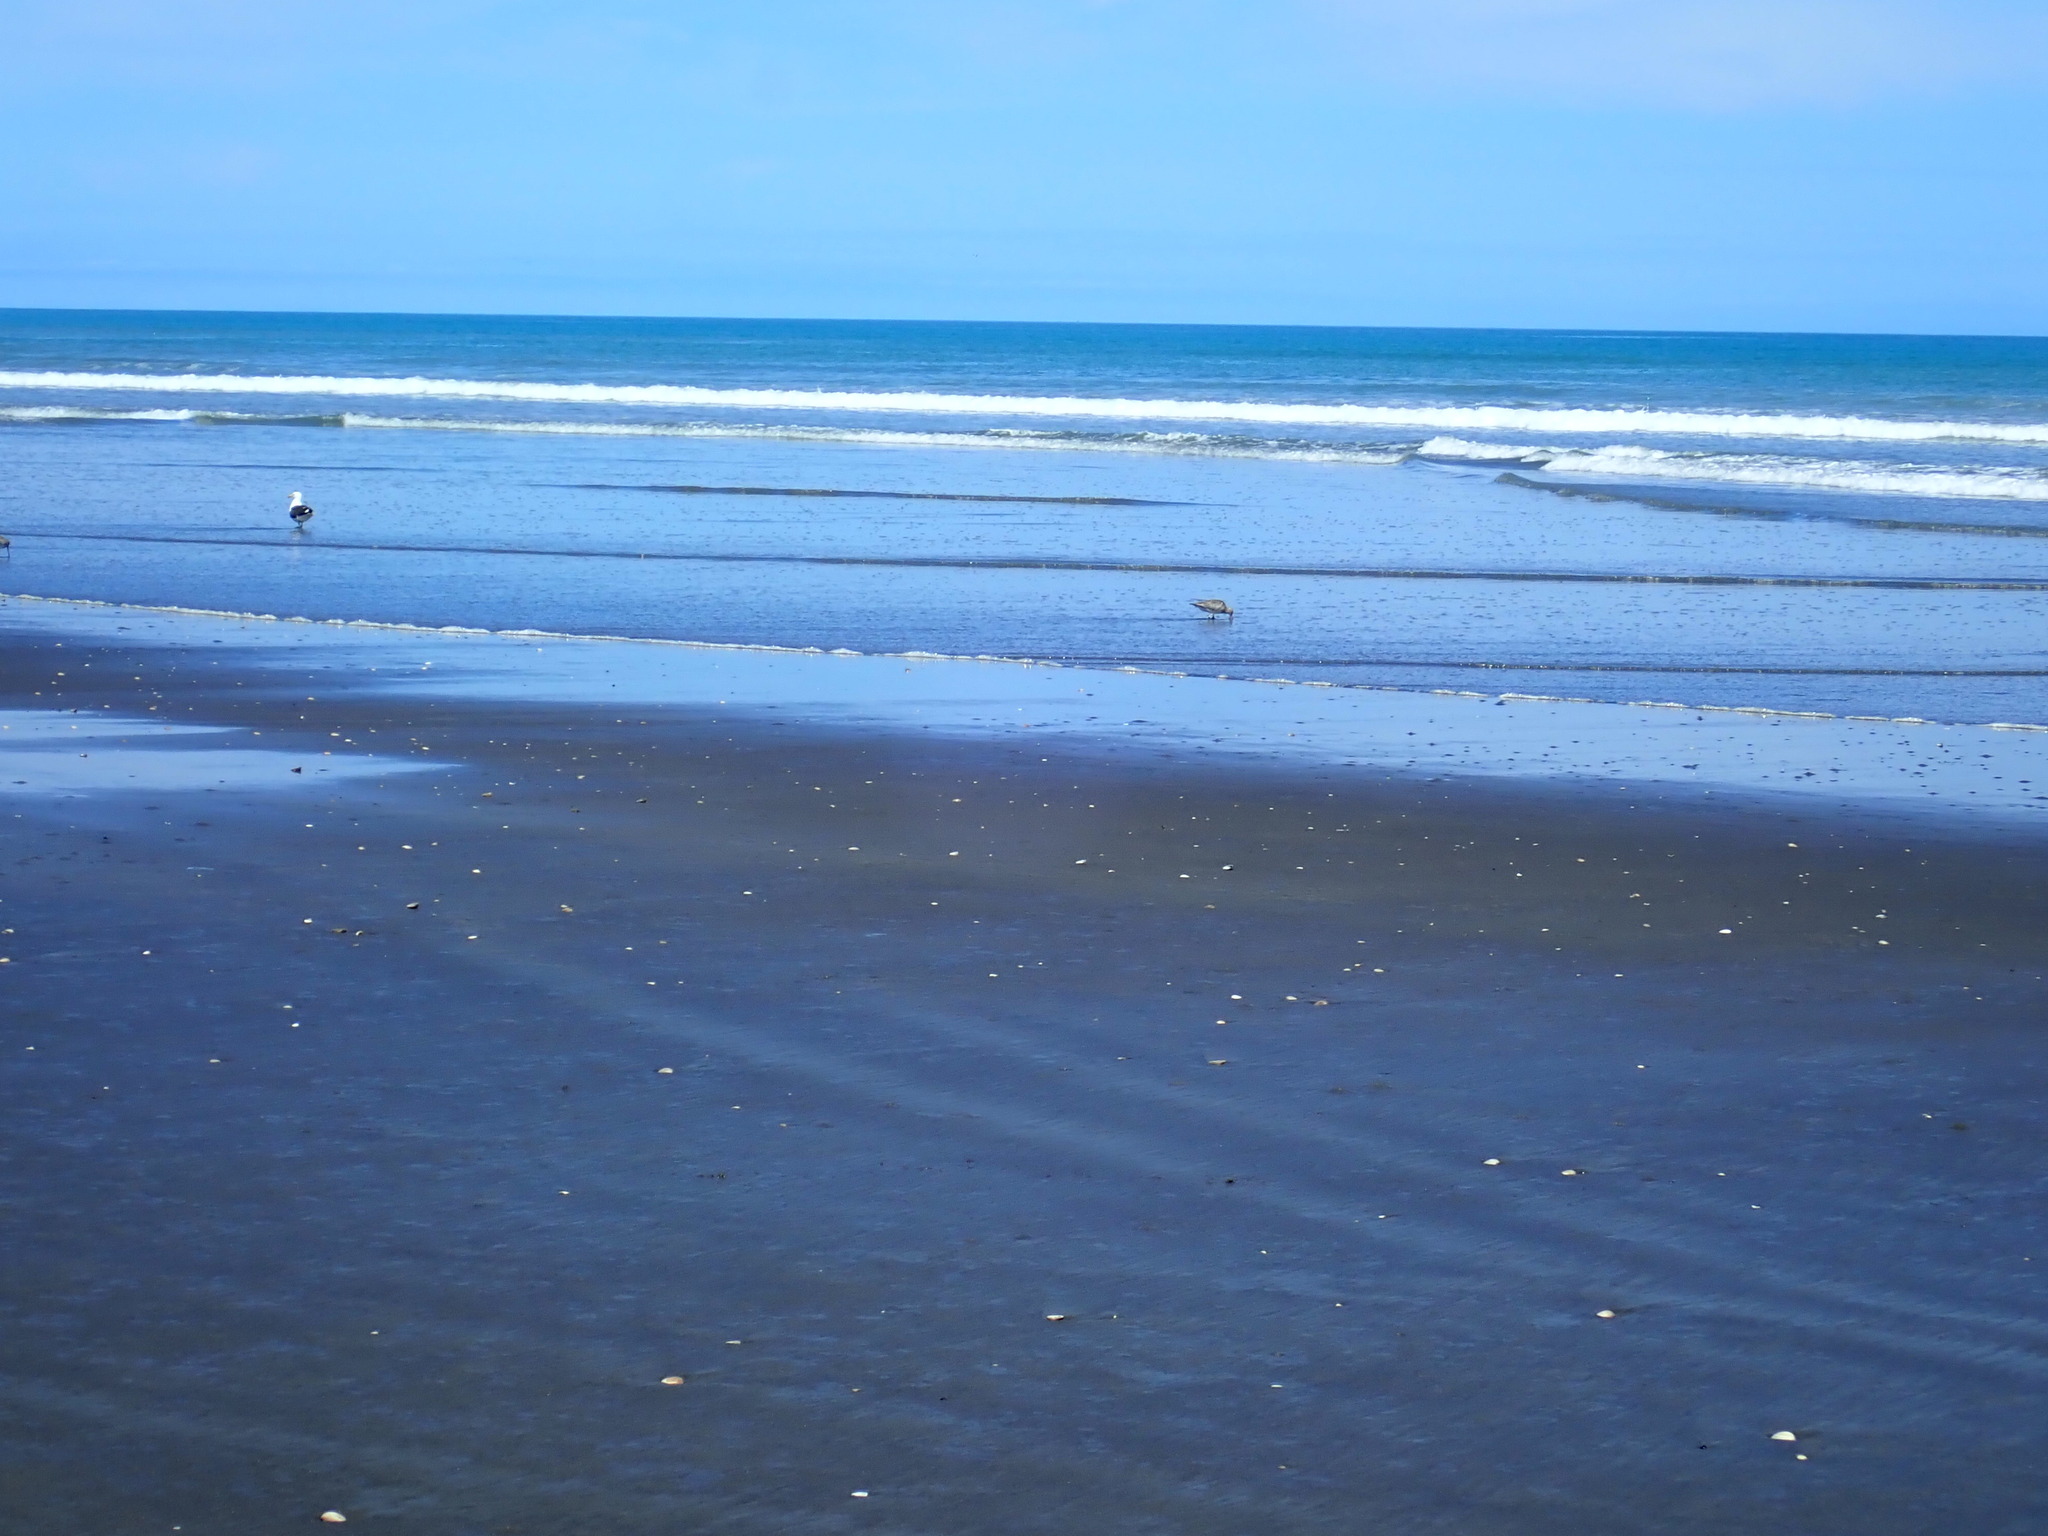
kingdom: Animalia
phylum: Chordata
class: Aves
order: Charadriiformes
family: Scolopacidae
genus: Limosa
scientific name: Limosa lapponica
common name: Bar-tailed godwit
